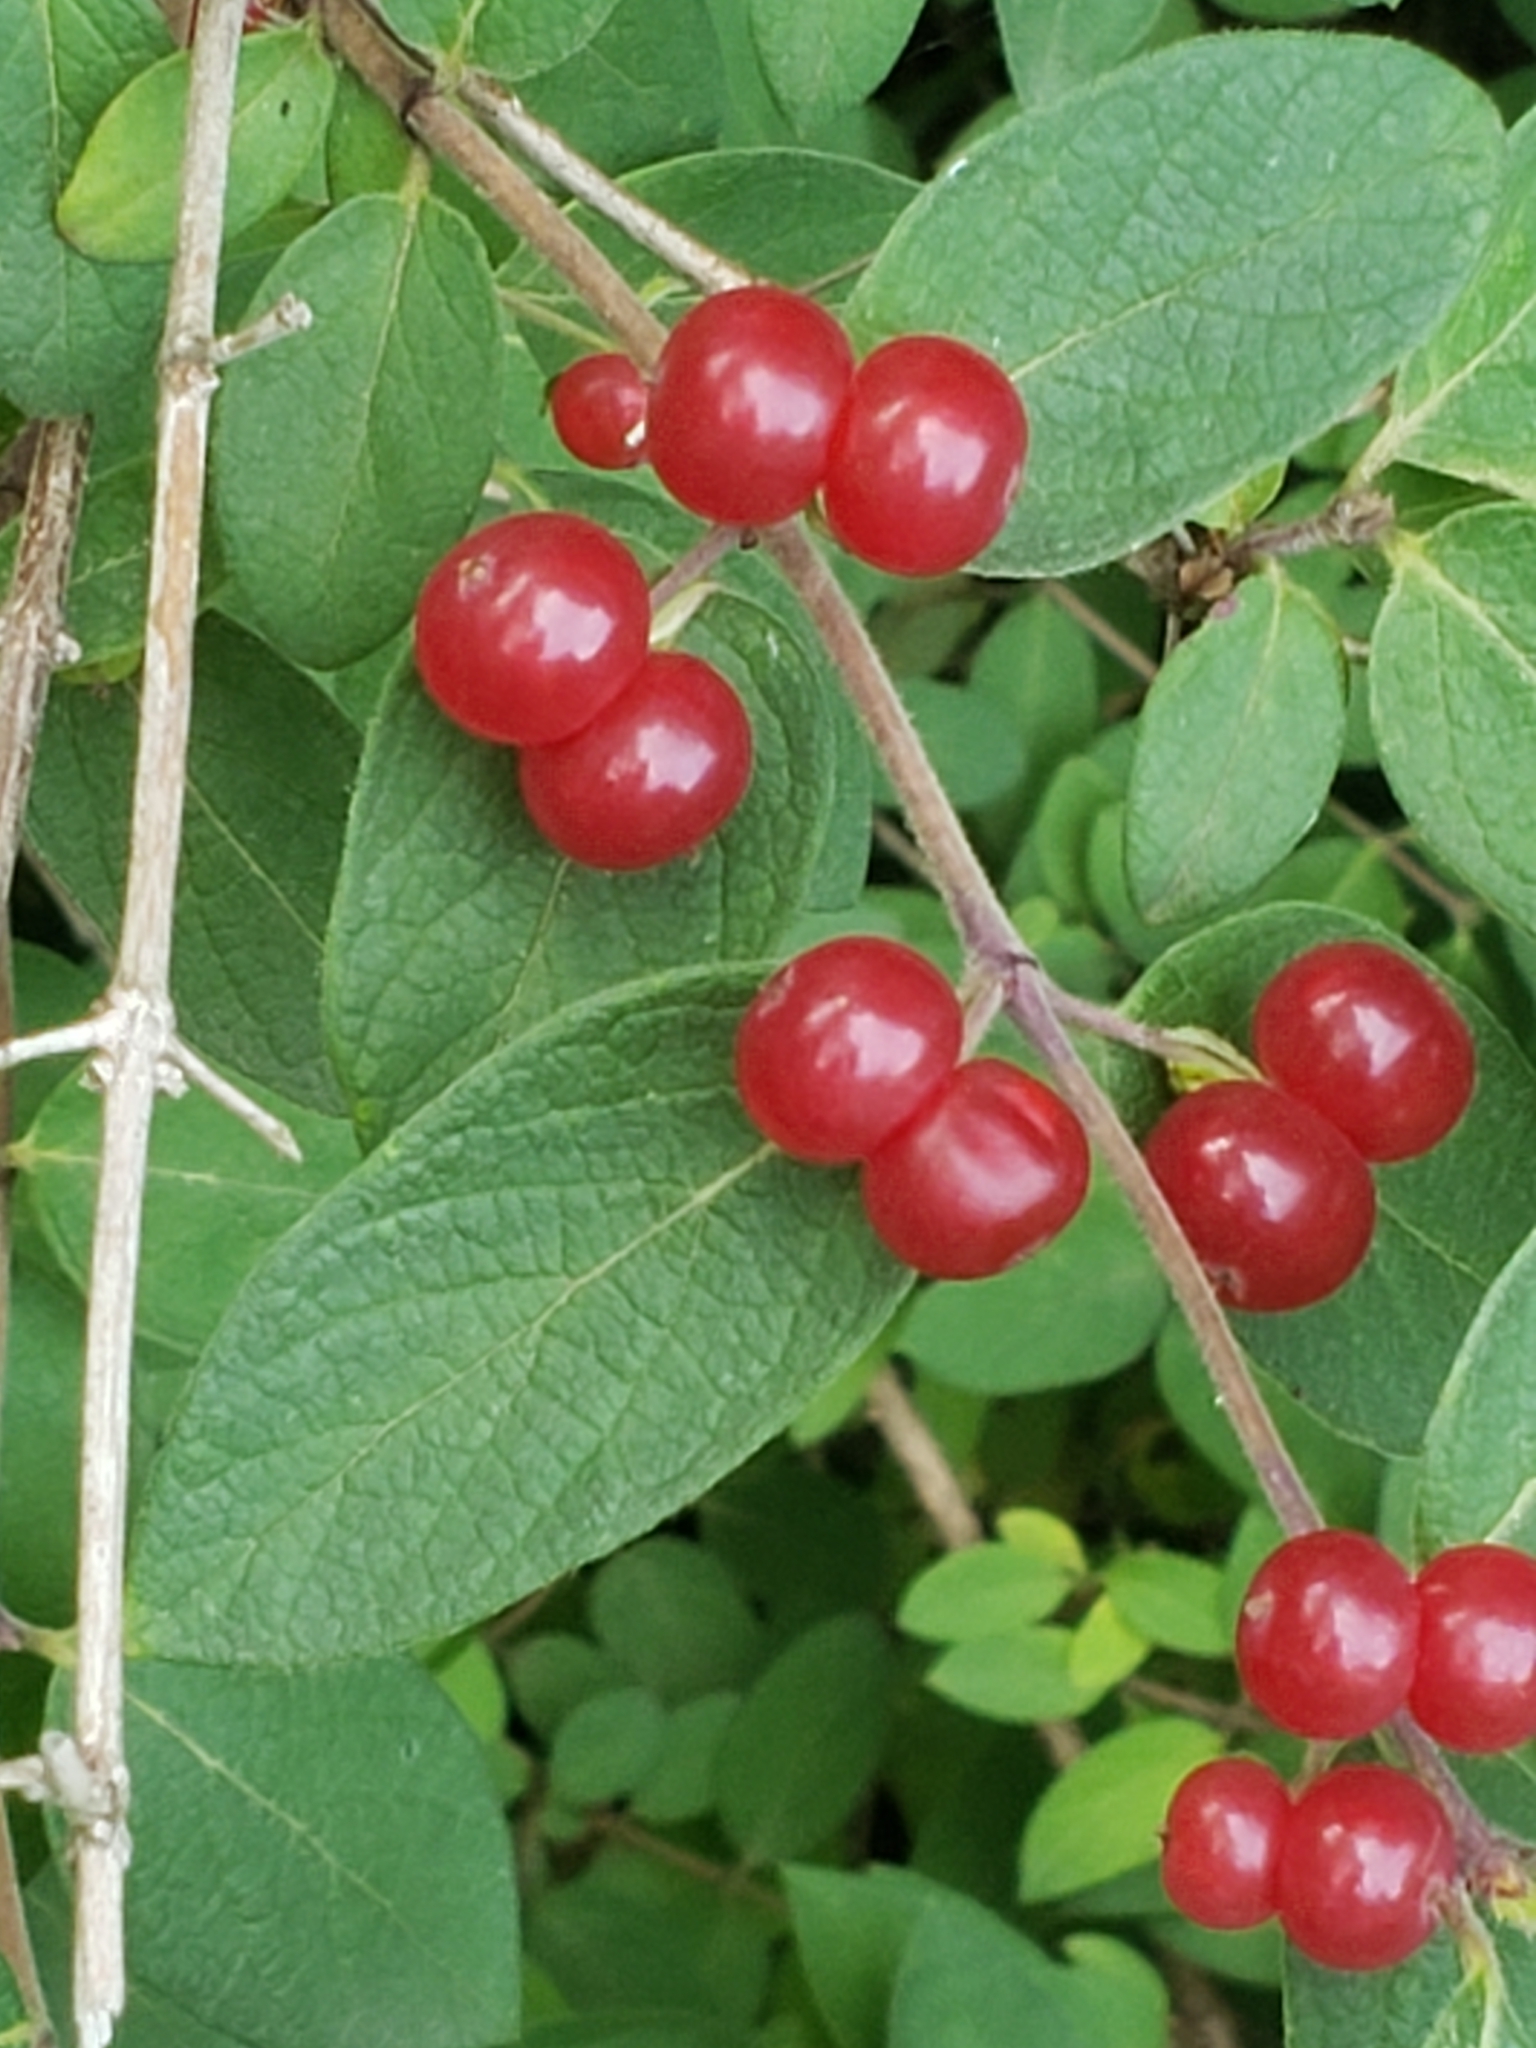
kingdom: Plantae
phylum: Tracheophyta
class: Magnoliopsida
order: Dipsacales
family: Caprifoliaceae
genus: Lonicera
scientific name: Lonicera
